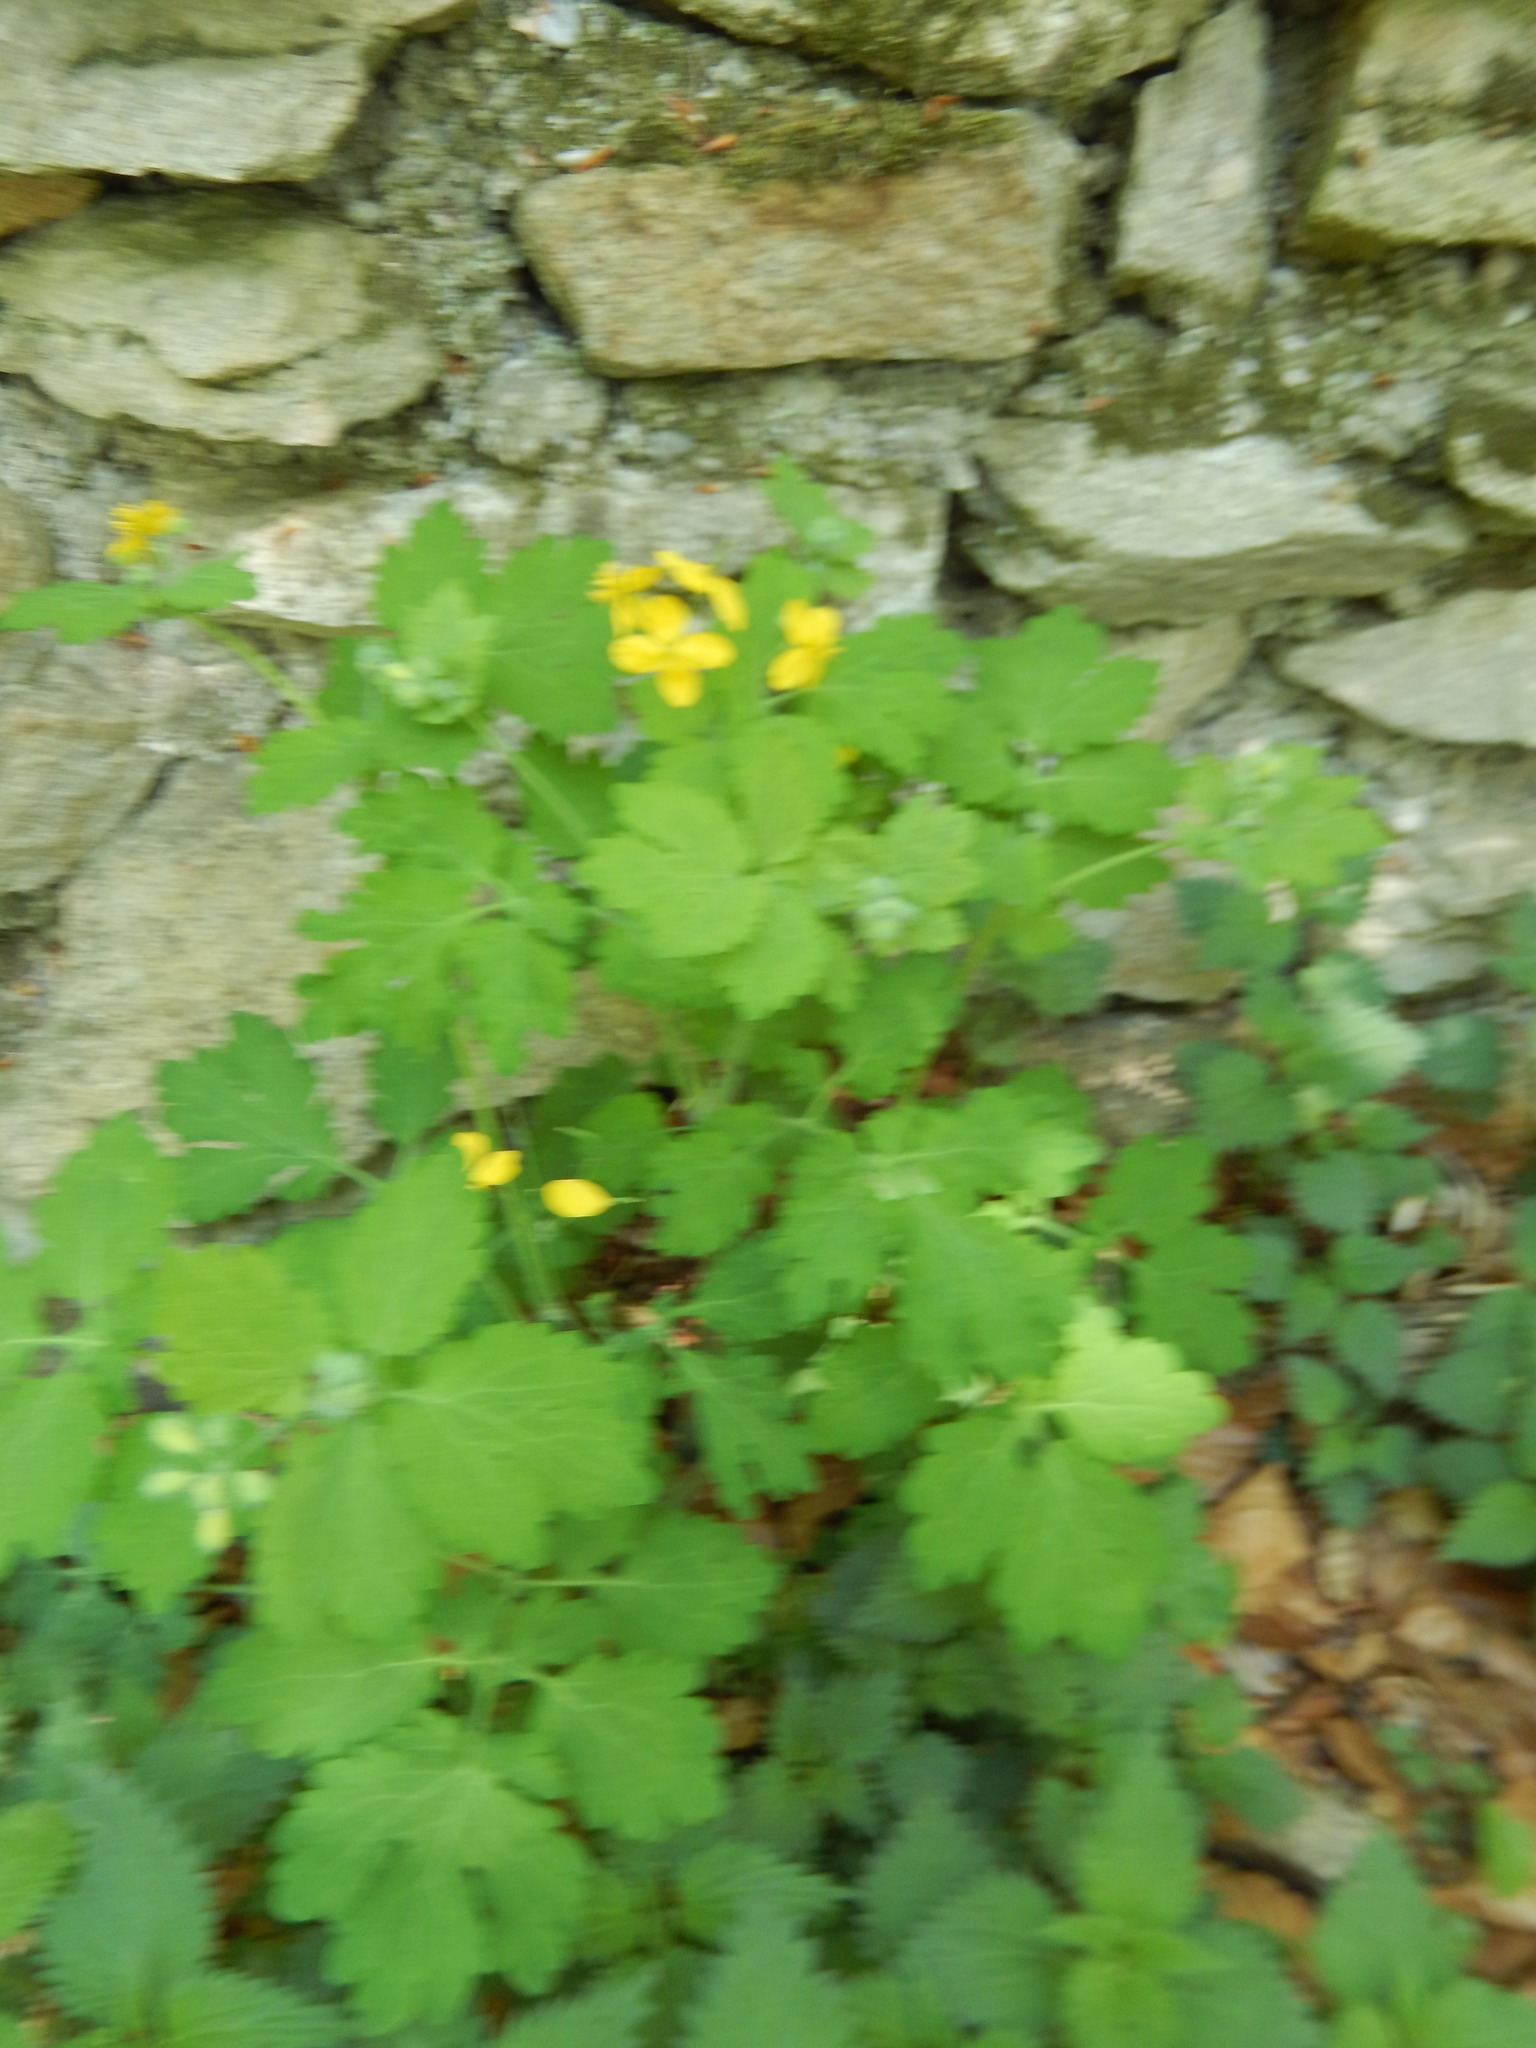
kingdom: Plantae
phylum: Tracheophyta
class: Magnoliopsida
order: Ranunculales
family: Papaveraceae
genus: Chelidonium
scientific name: Chelidonium majus
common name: Greater celandine
